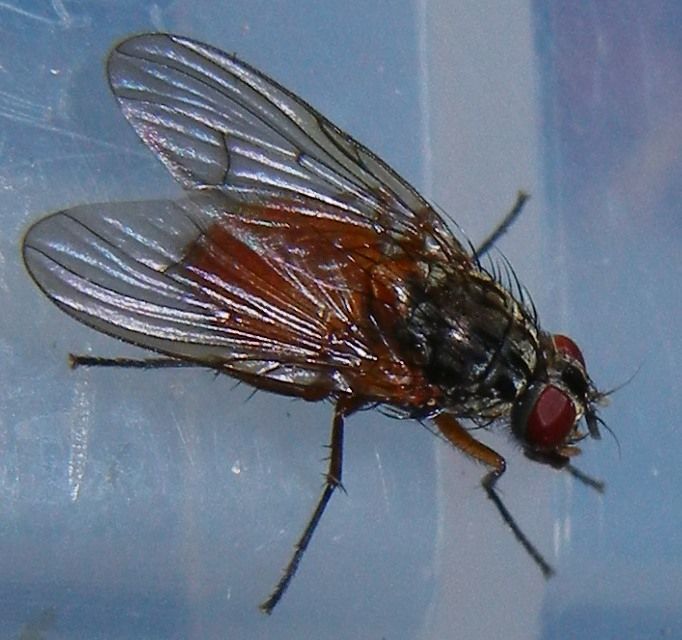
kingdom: Animalia
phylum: Arthropoda
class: Insecta
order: Diptera
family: Muscidae
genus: Phaonia
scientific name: Phaonia subventa
